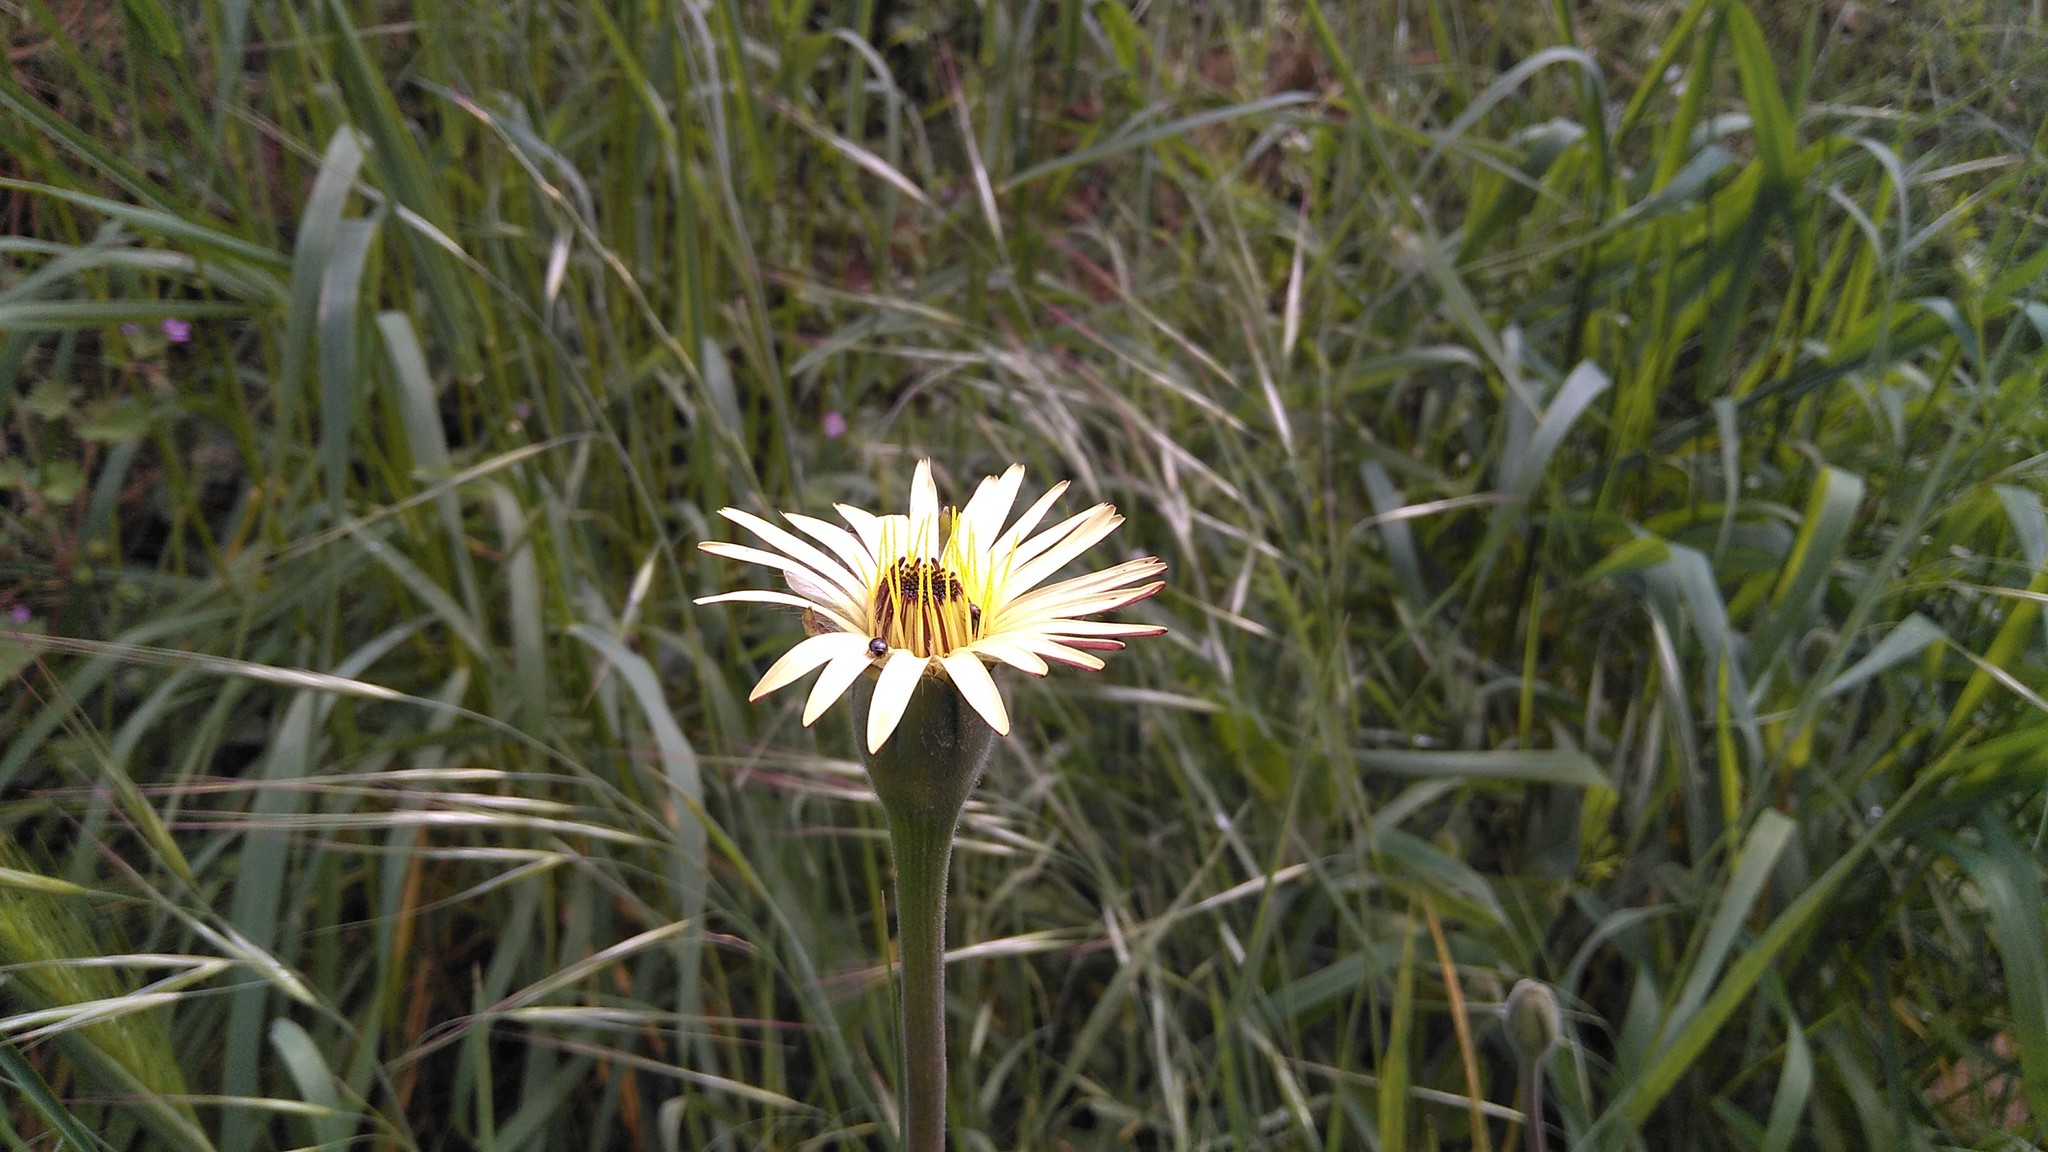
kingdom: Plantae
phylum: Tracheophyta
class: Magnoliopsida
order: Asterales
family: Asteraceae
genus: Urospermum
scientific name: Urospermum dalechampii
